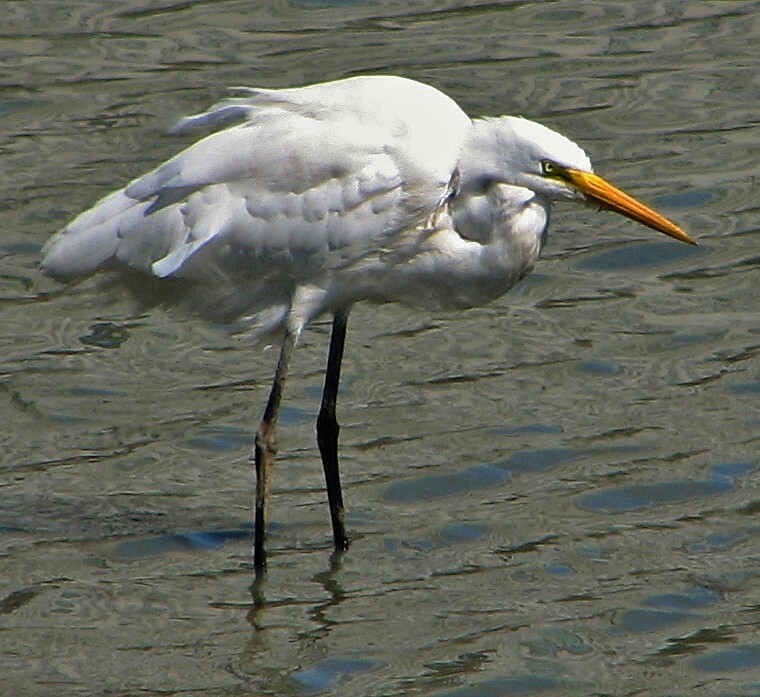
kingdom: Animalia
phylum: Chordata
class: Aves
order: Pelecaniformes
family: Ardeidae
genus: Ardea
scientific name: Ardea alba
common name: Great egret
